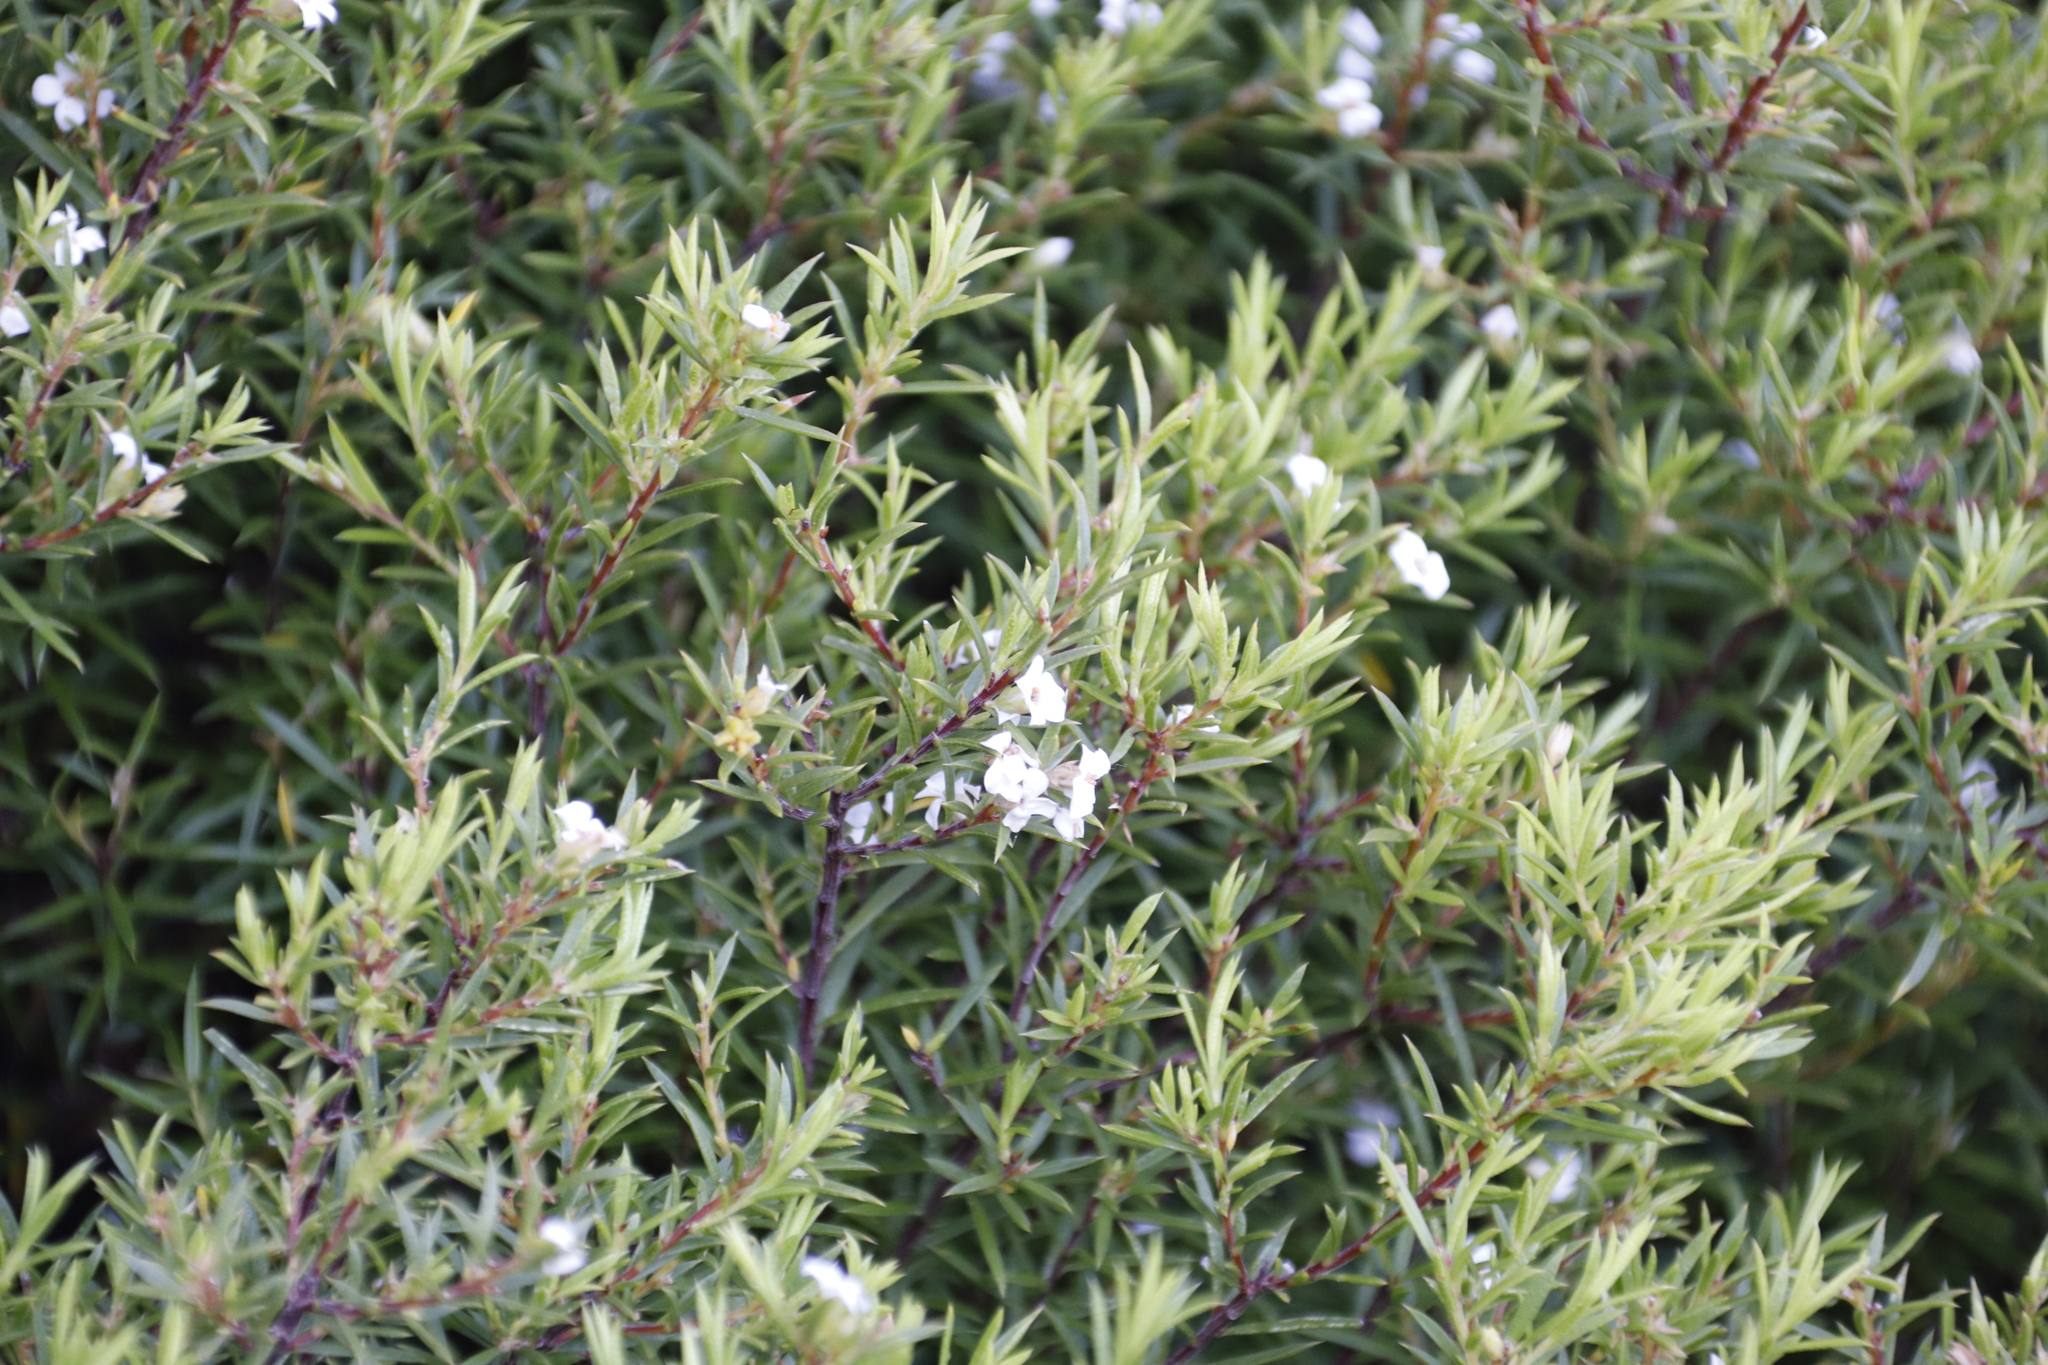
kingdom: Plantae
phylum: Tracheophyta
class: Magnoliopsida
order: Sapindales
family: Rutaceae
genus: Coleonema
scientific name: Coleonema album
